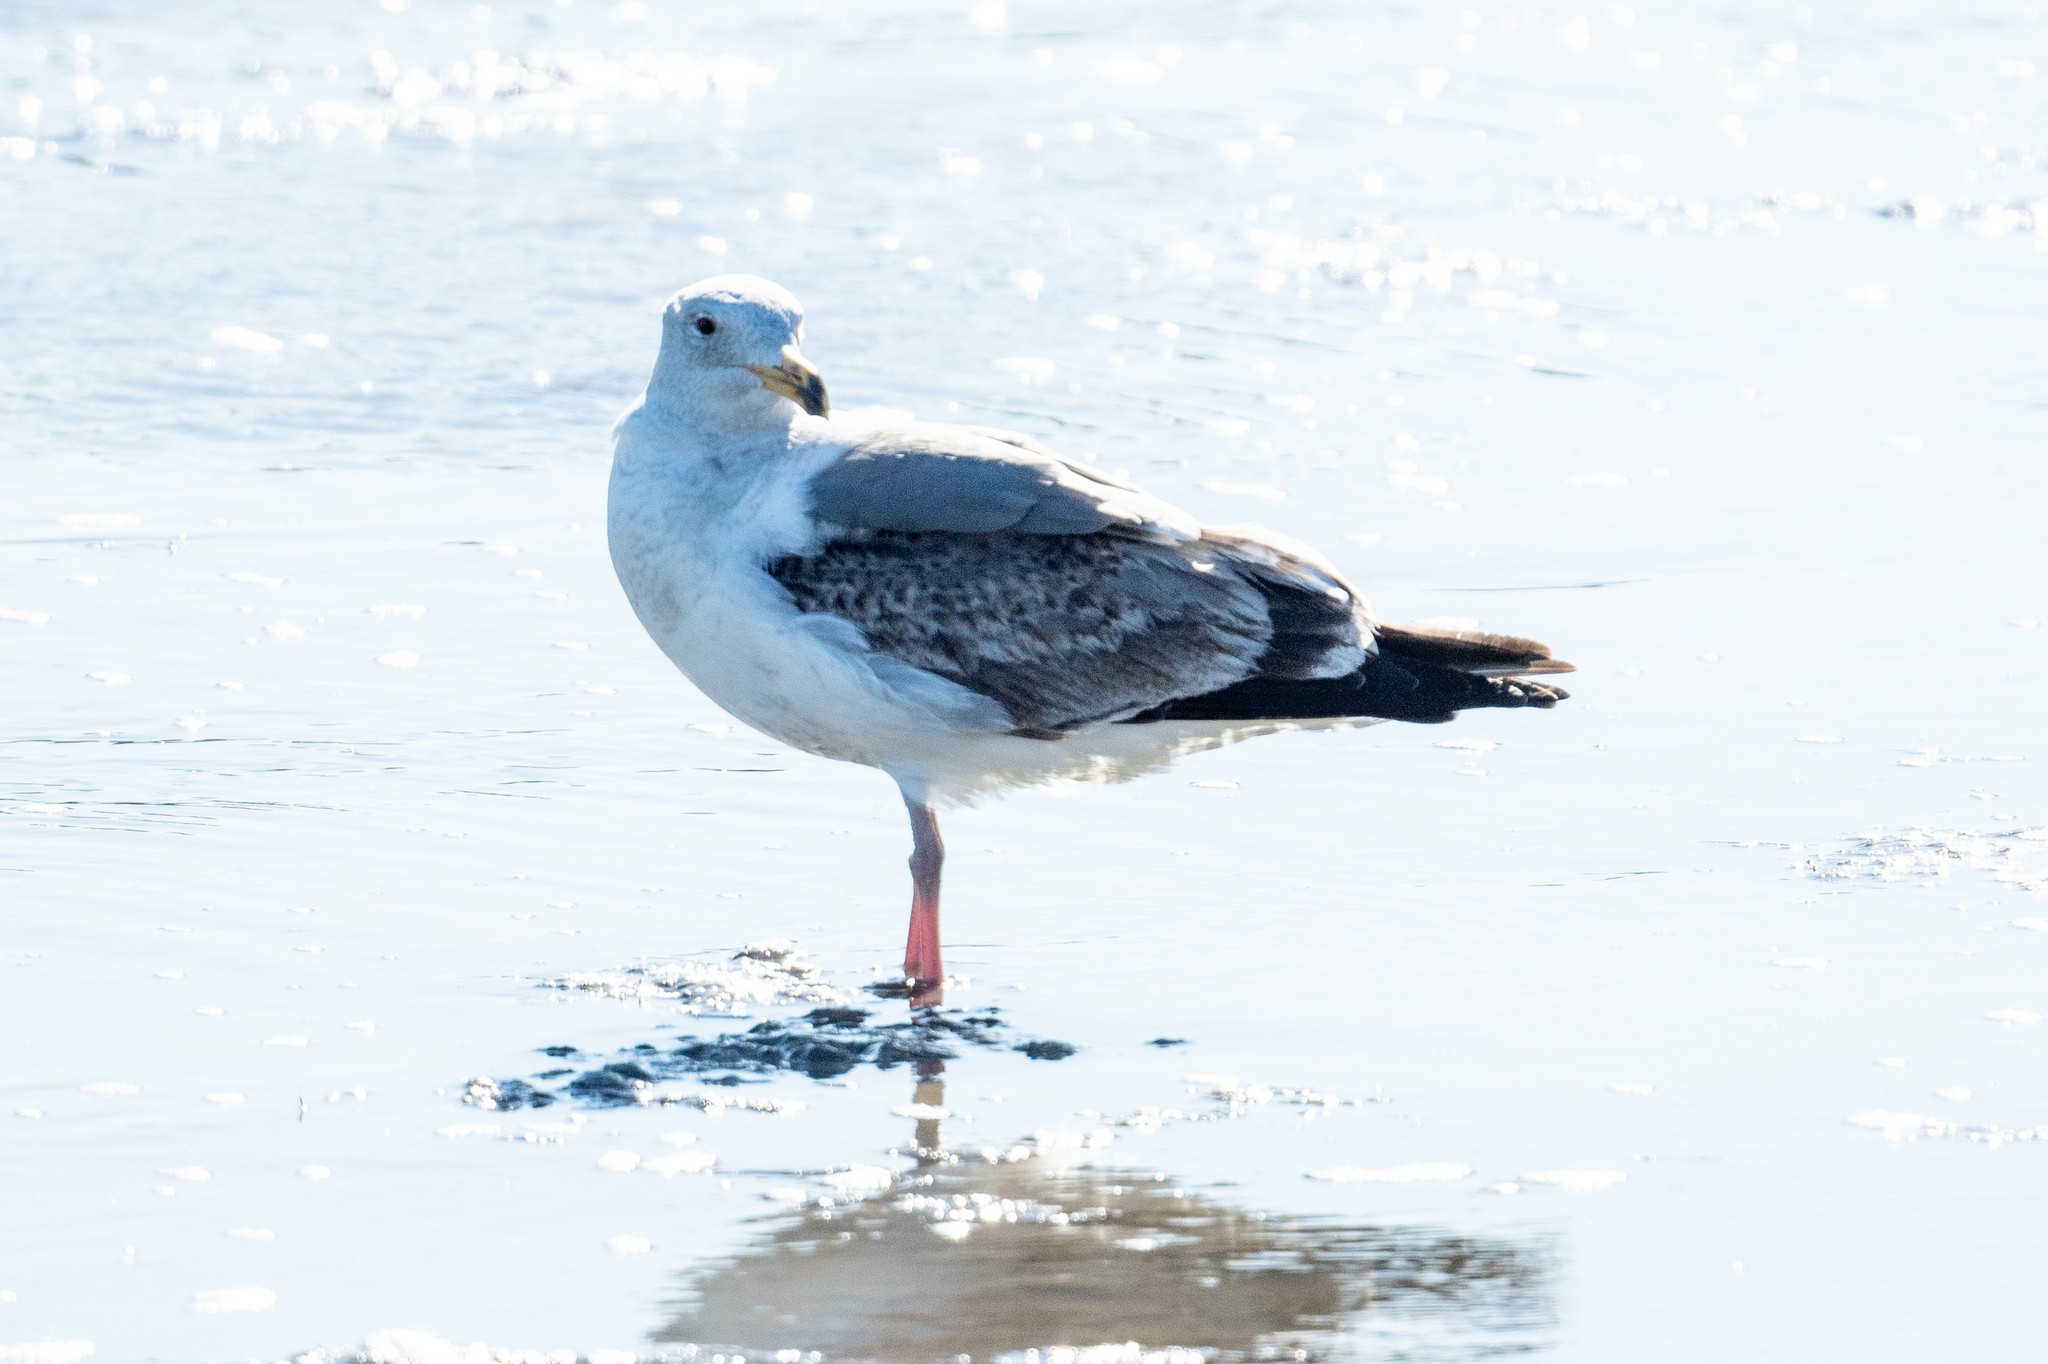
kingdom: Animalia
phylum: Chordata
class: Aves
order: Charadriiformes
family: Laridae
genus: Larus
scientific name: Larus occidentalis
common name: Western gull
